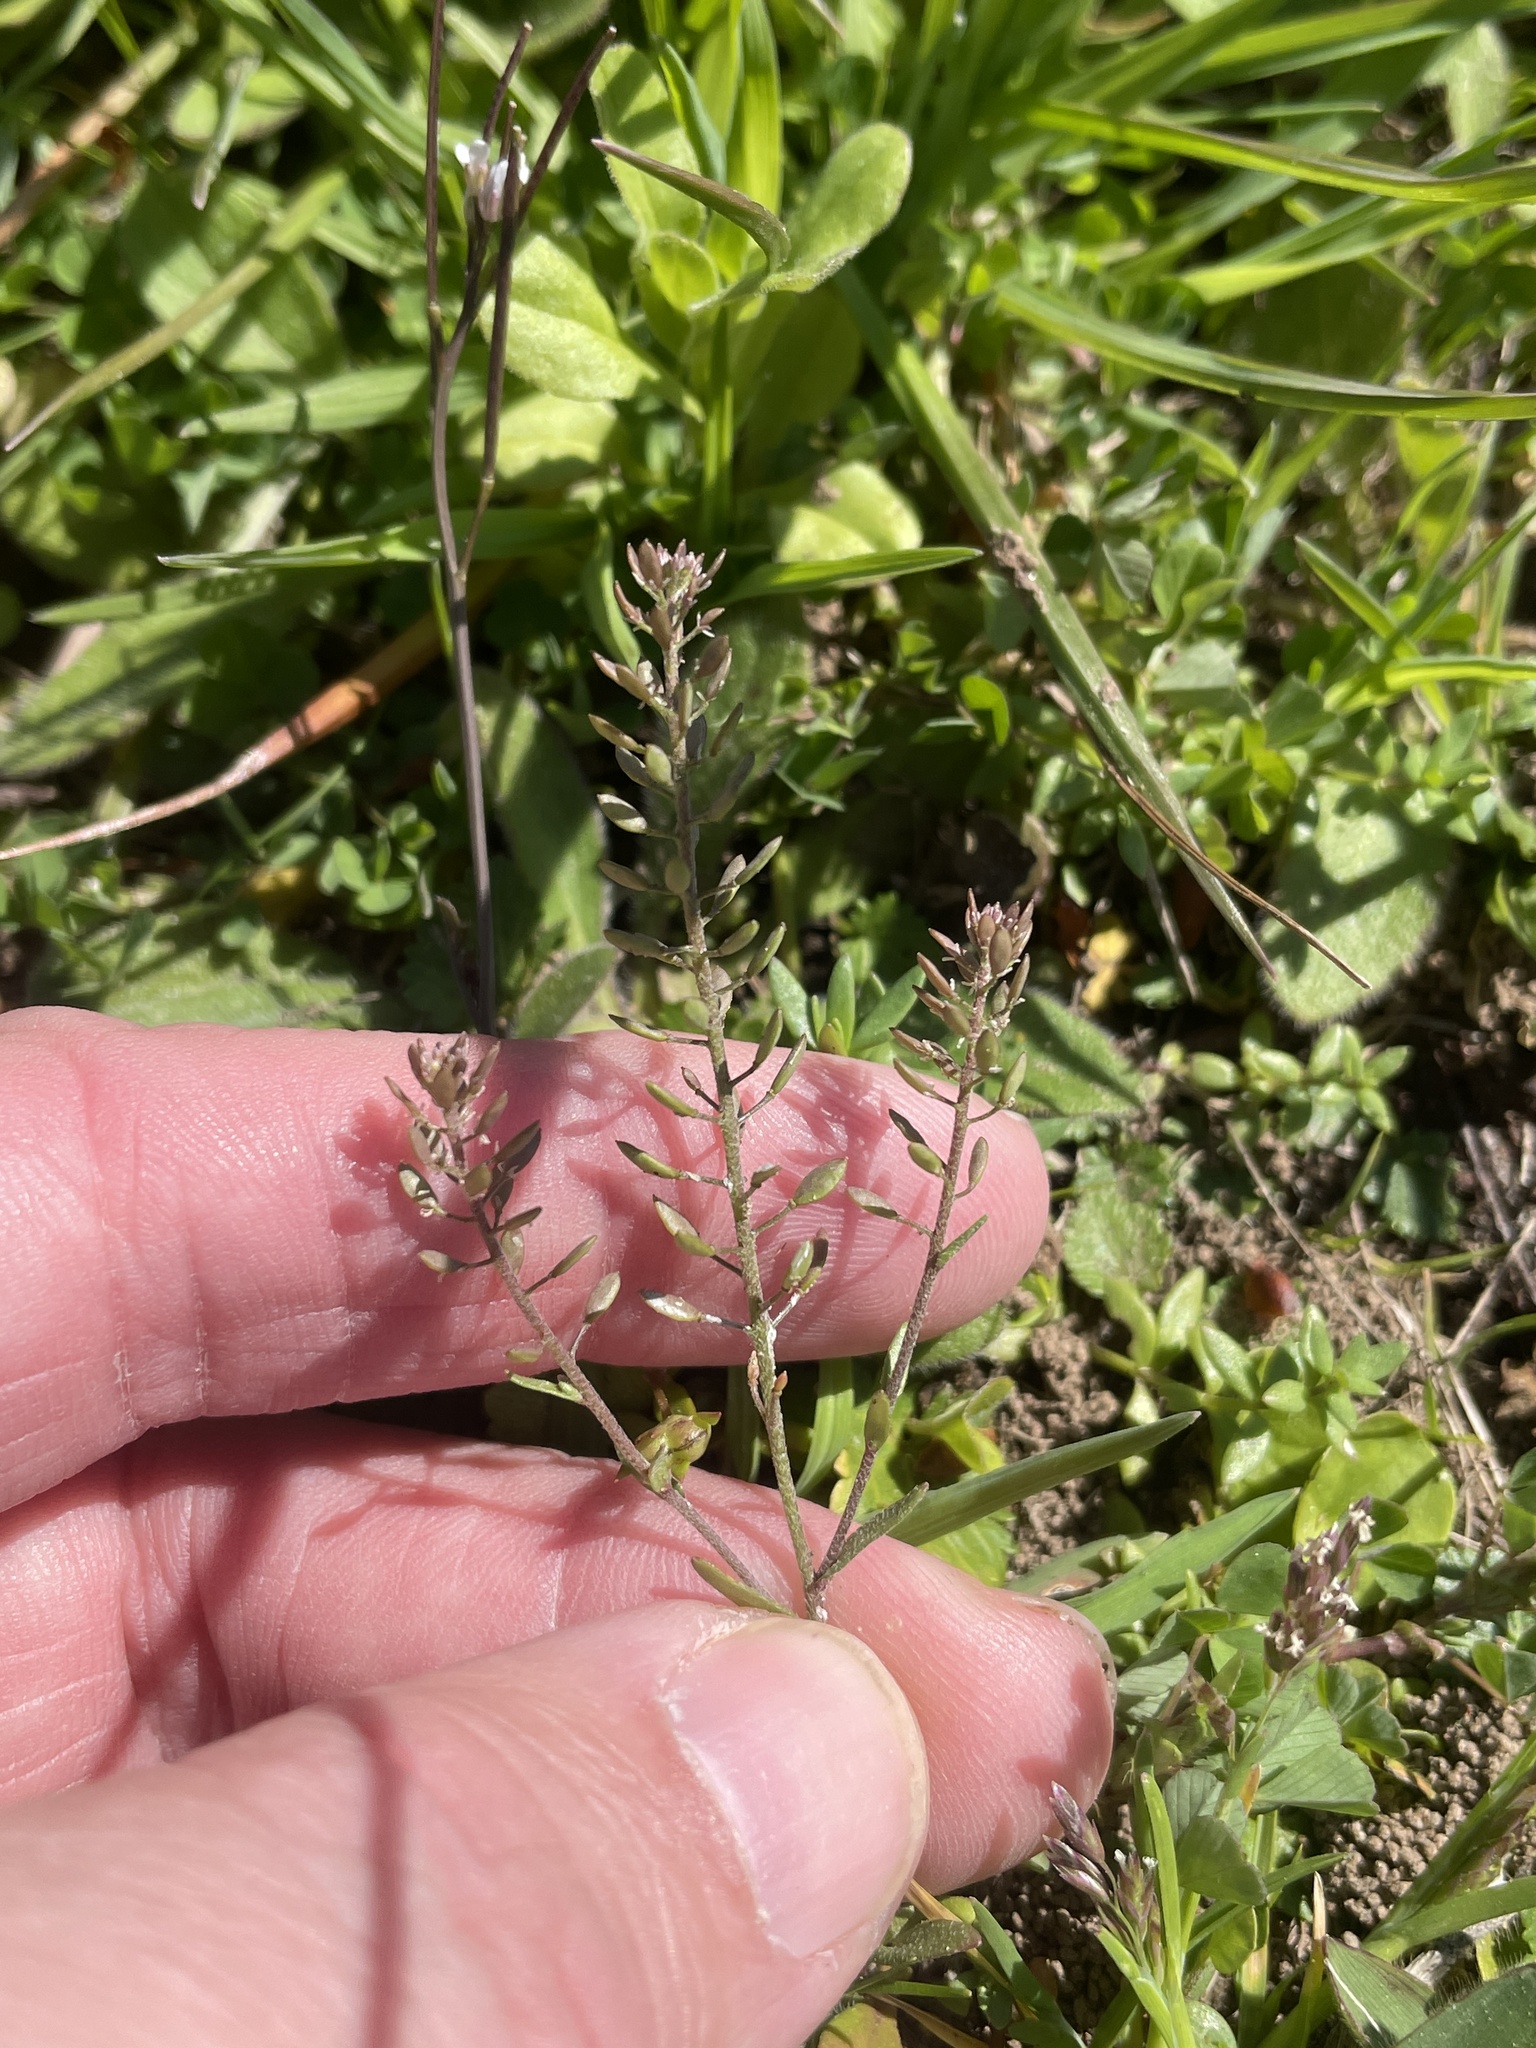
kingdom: Plantae
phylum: Tracheophyta
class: Magnoliopsida
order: Brassicales
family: Brassicaceae
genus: Abdra
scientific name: Abdra brachycarpa
